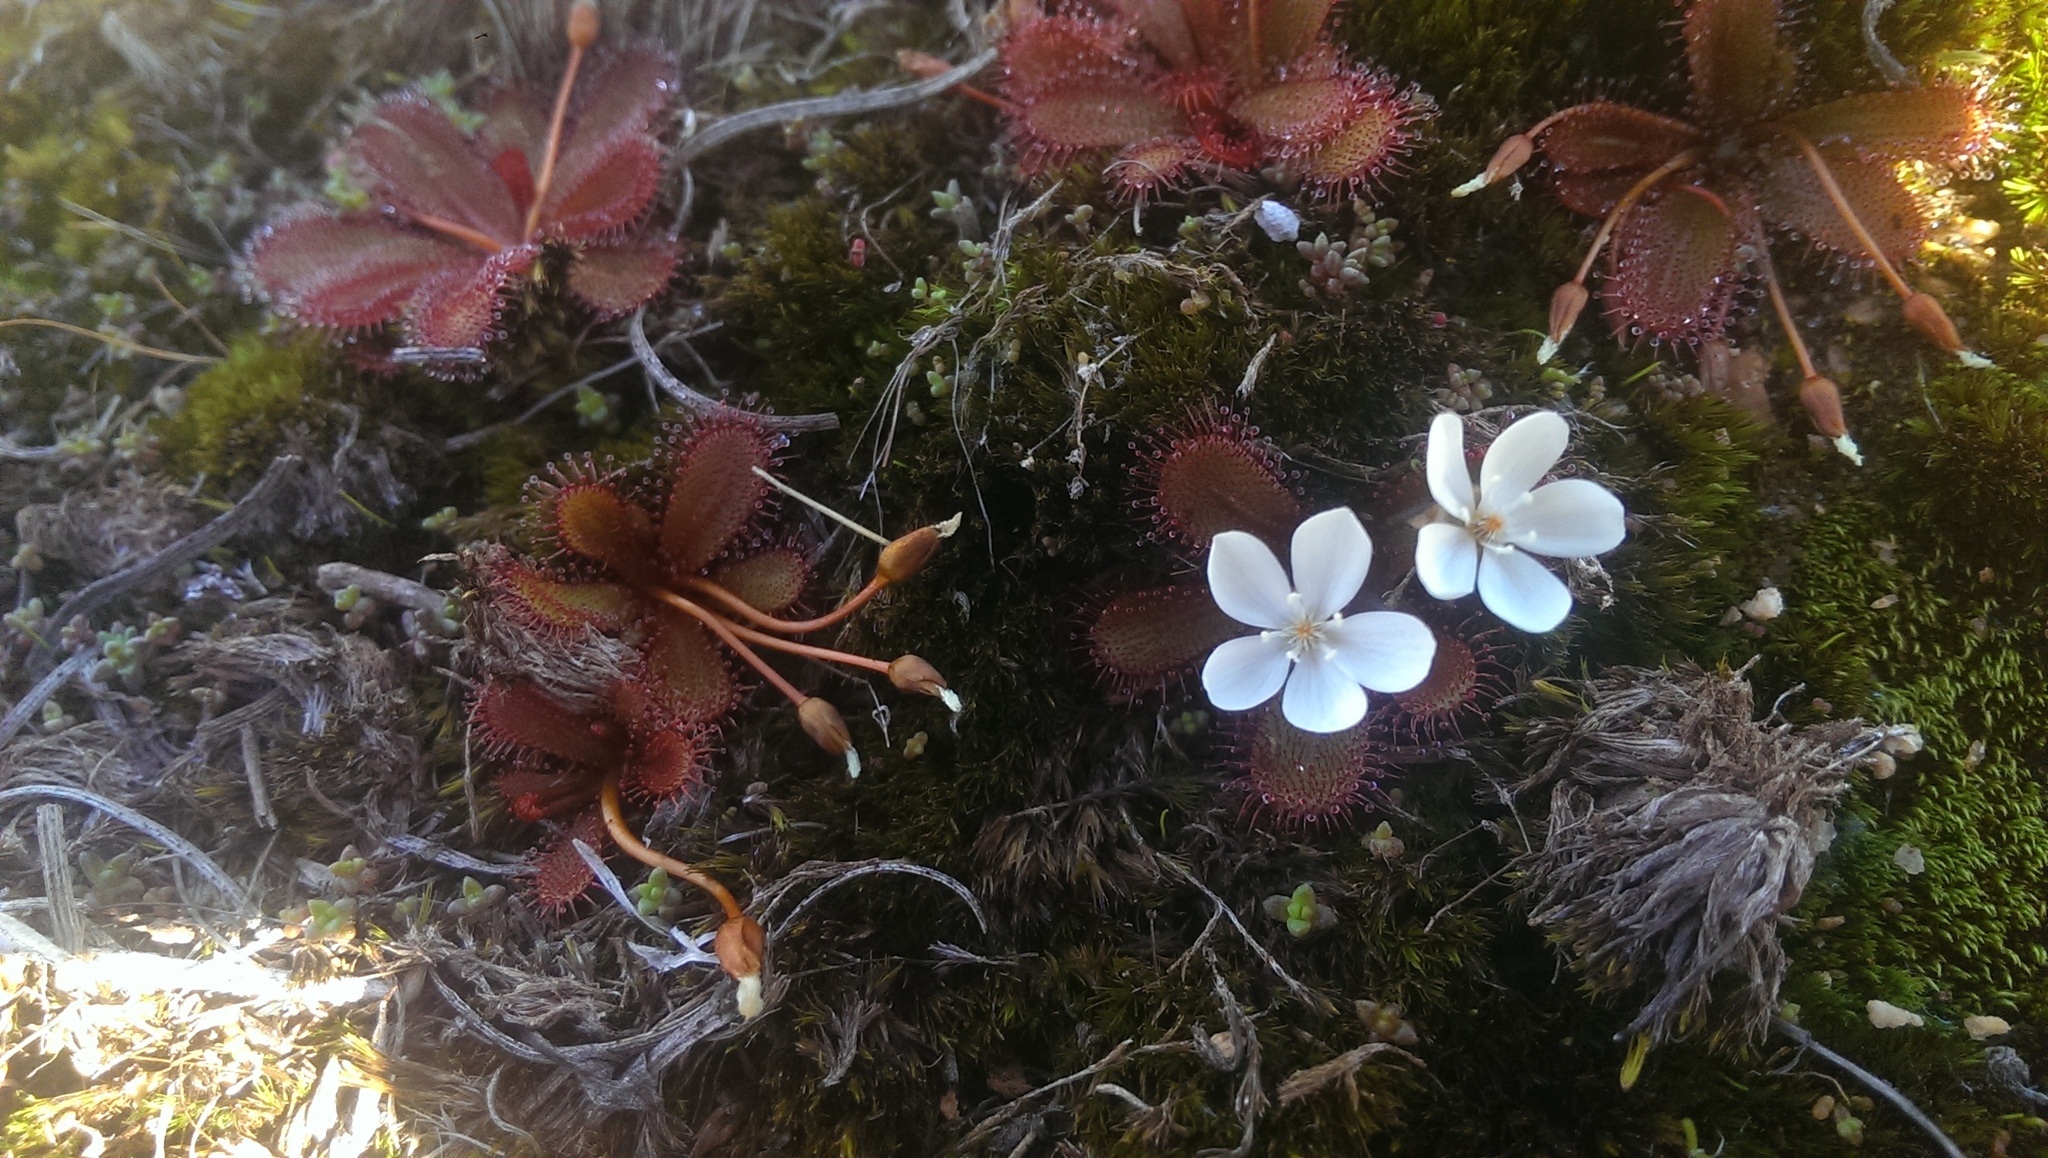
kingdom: Plantae
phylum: Tracheophyta
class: Magnoliopsida
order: Caryophyllales
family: Droseraceae
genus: Drosera
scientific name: Drosera bulbosa
